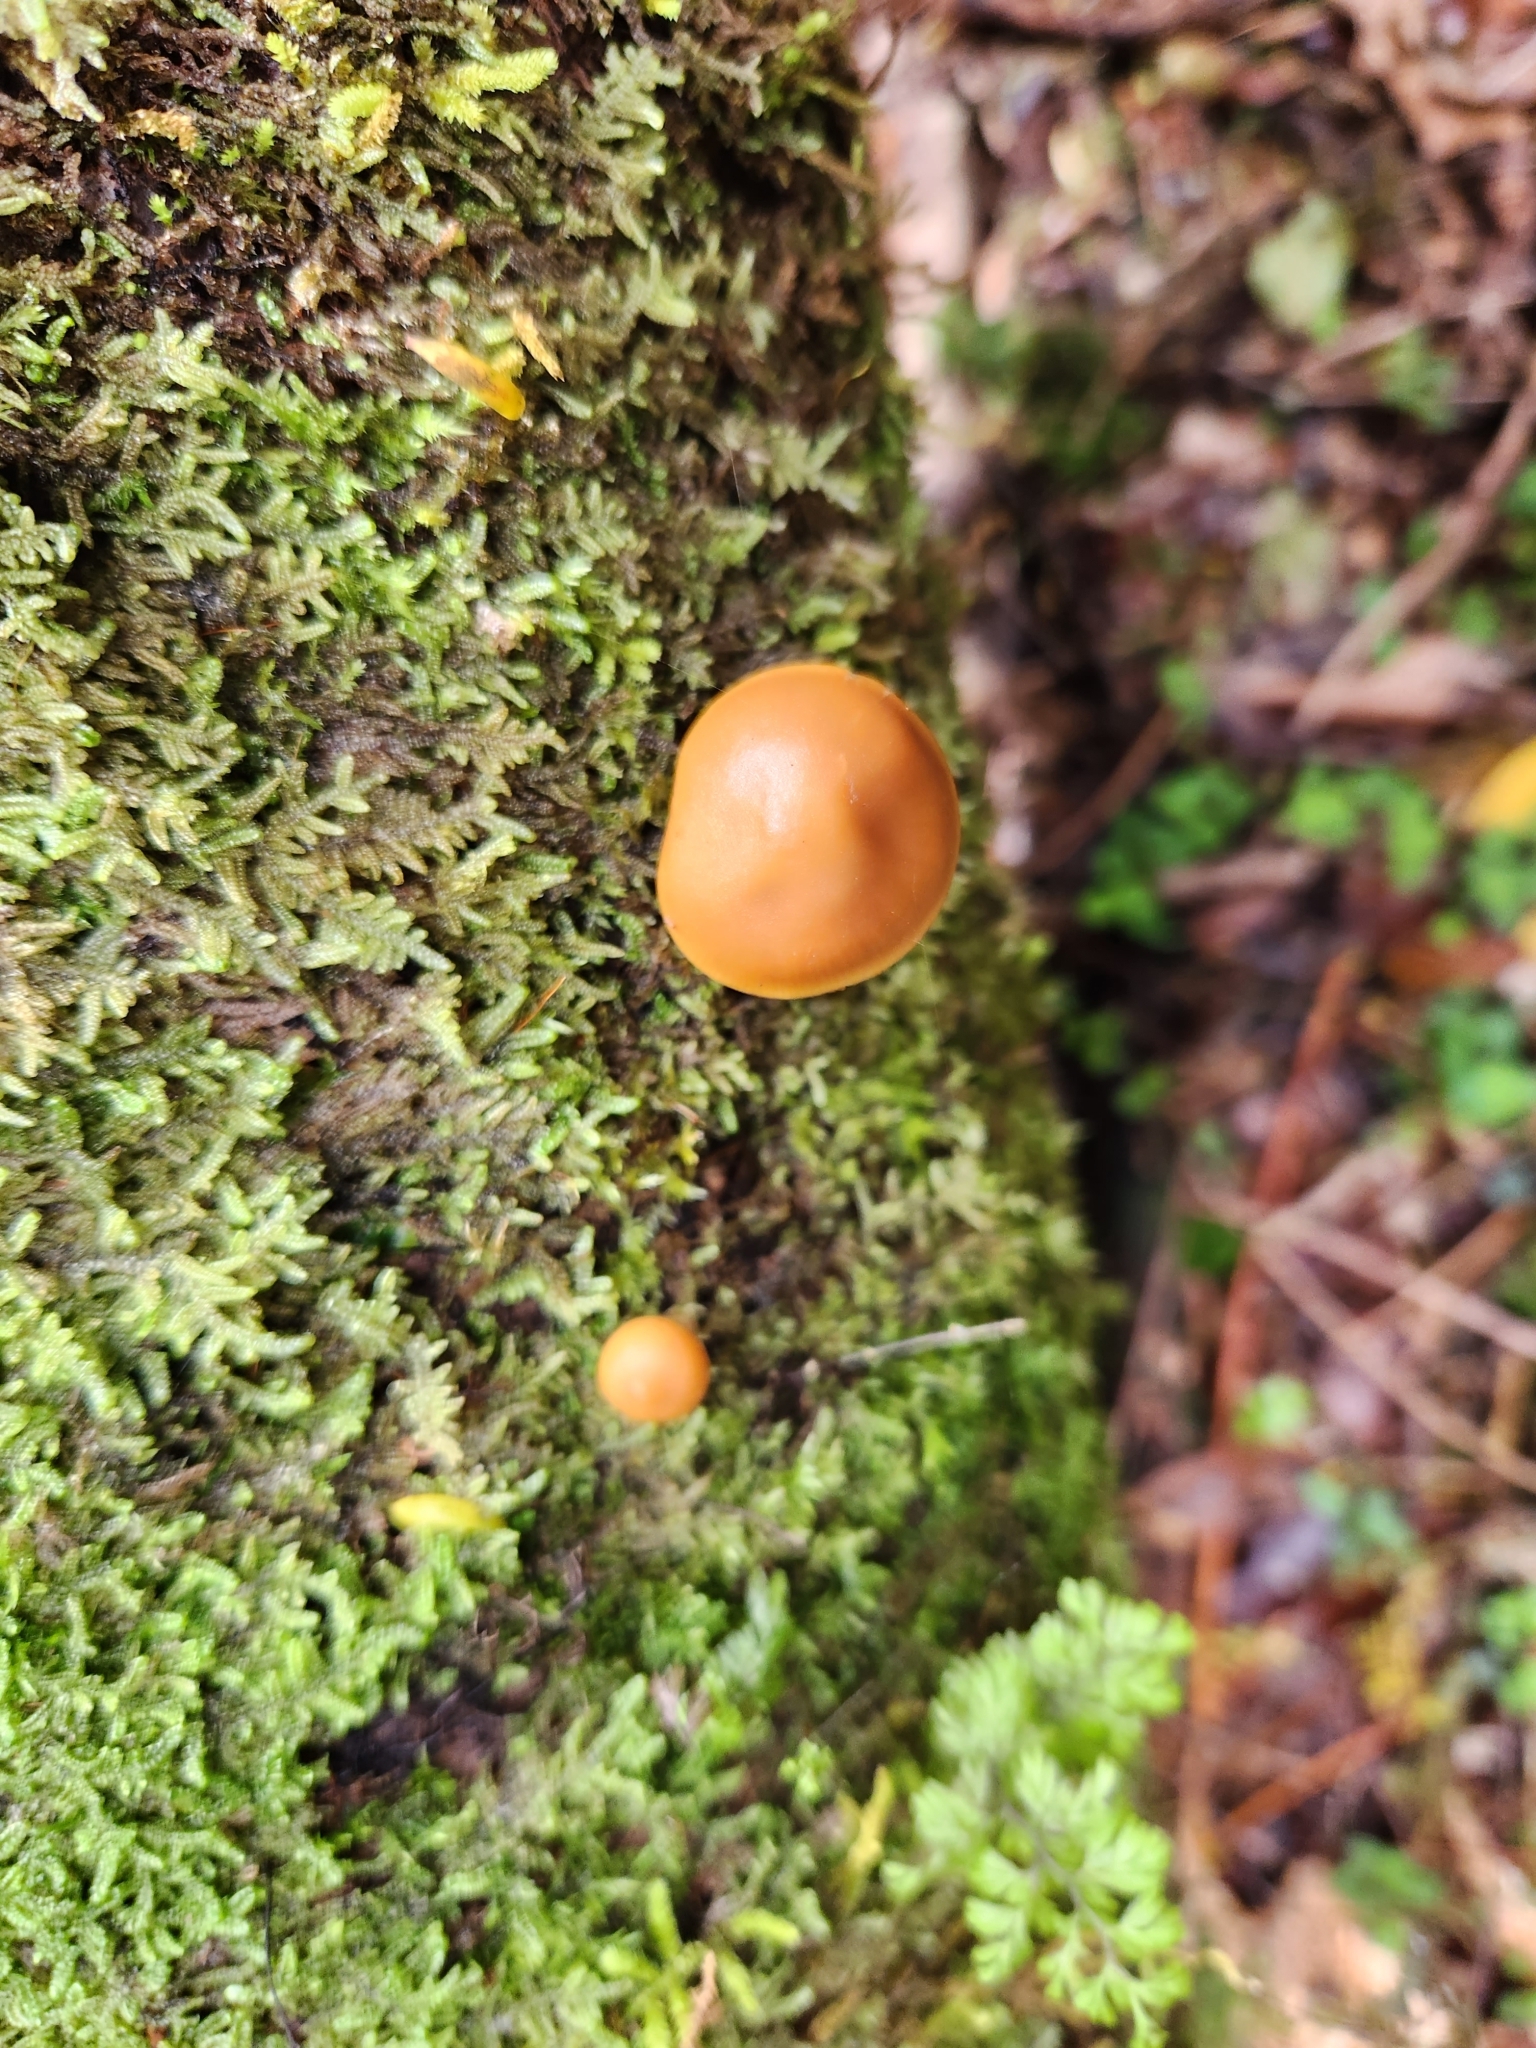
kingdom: Fungi
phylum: Basidiomycota
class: Agaricomycetes
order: Agaricales
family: Hymenogastraceae
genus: Galerina
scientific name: Galerina patagonica
